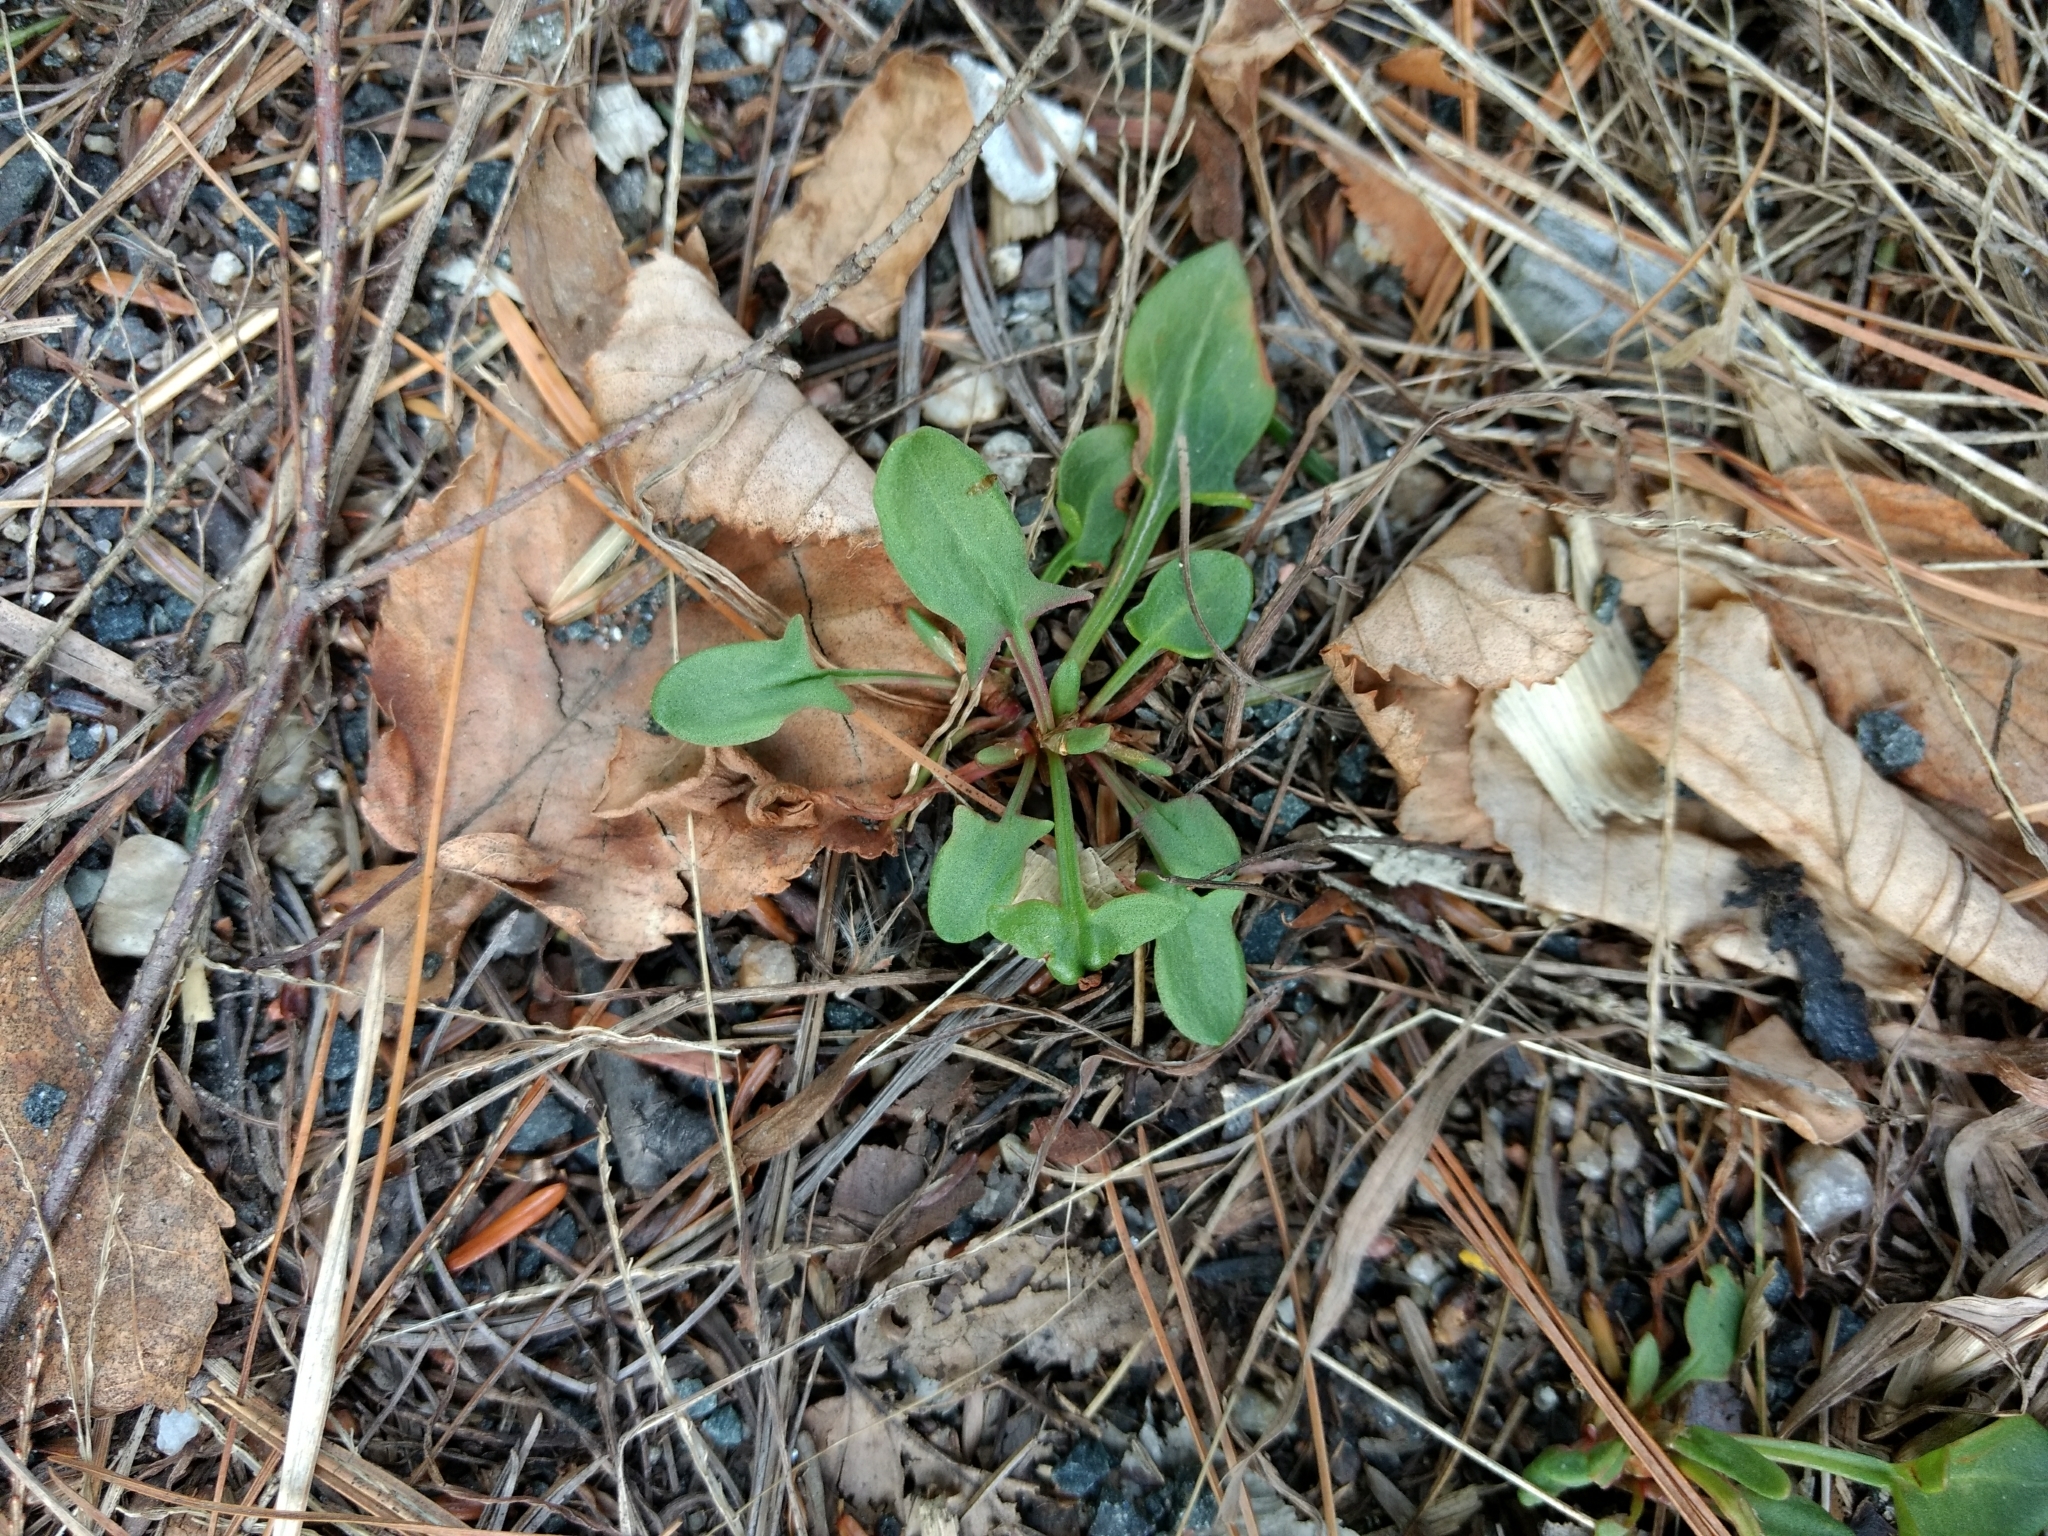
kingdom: Plantae
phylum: Tracheophyta
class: Magnoliopsida
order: Caryophyllales
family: Polygonaceae
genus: Rumex
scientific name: Rumex acetosella
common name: Common sheep sorrel
